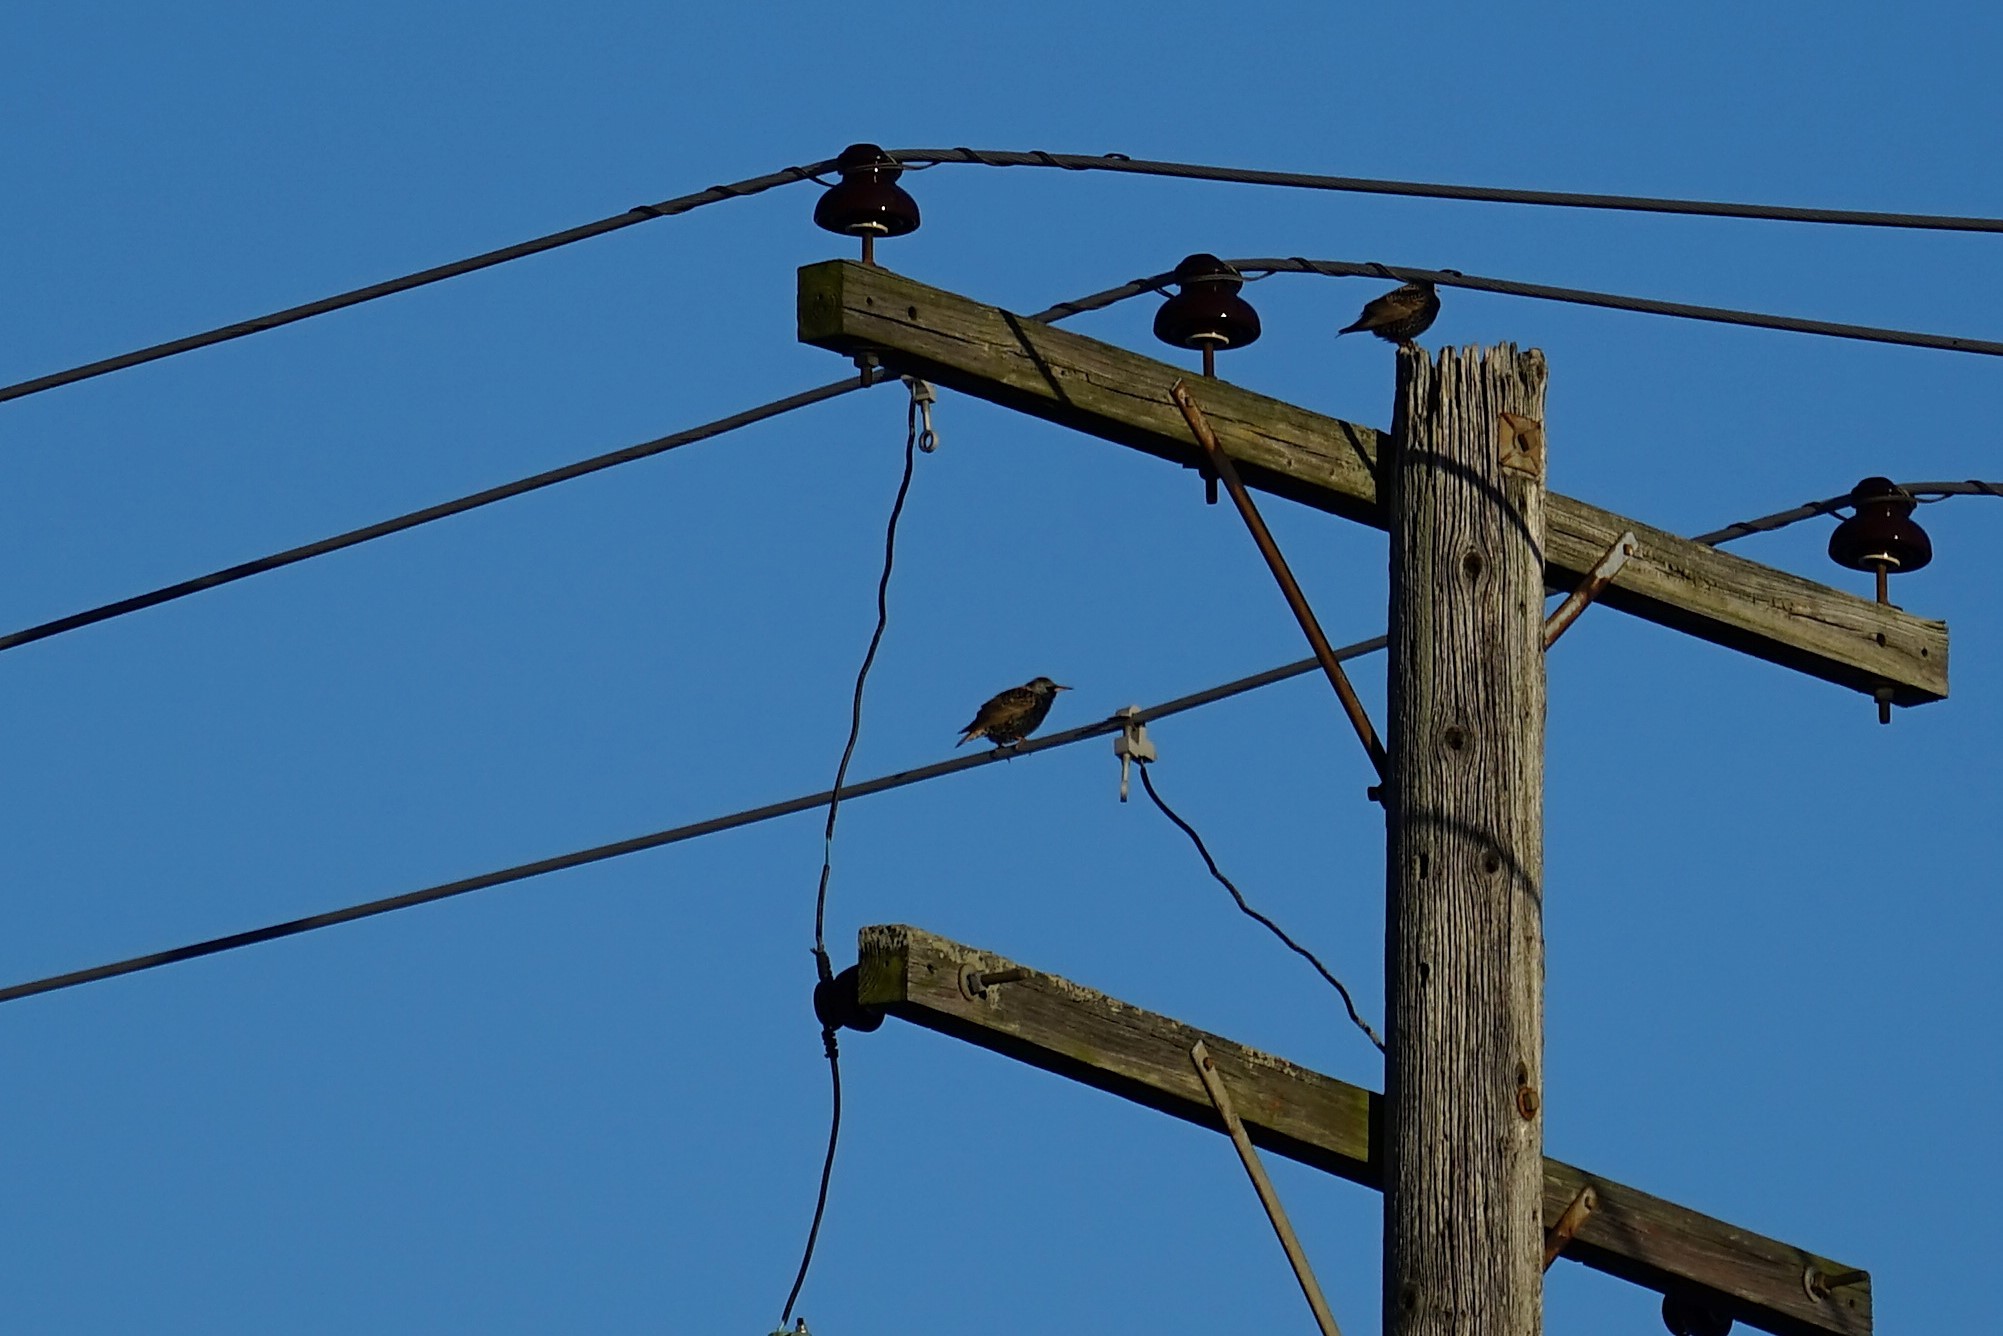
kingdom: Animalia
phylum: Chordata
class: Aves
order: Passeriformes
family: Sturnidae
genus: Sturnus
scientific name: Sturnus vulgaris
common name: Common starling
